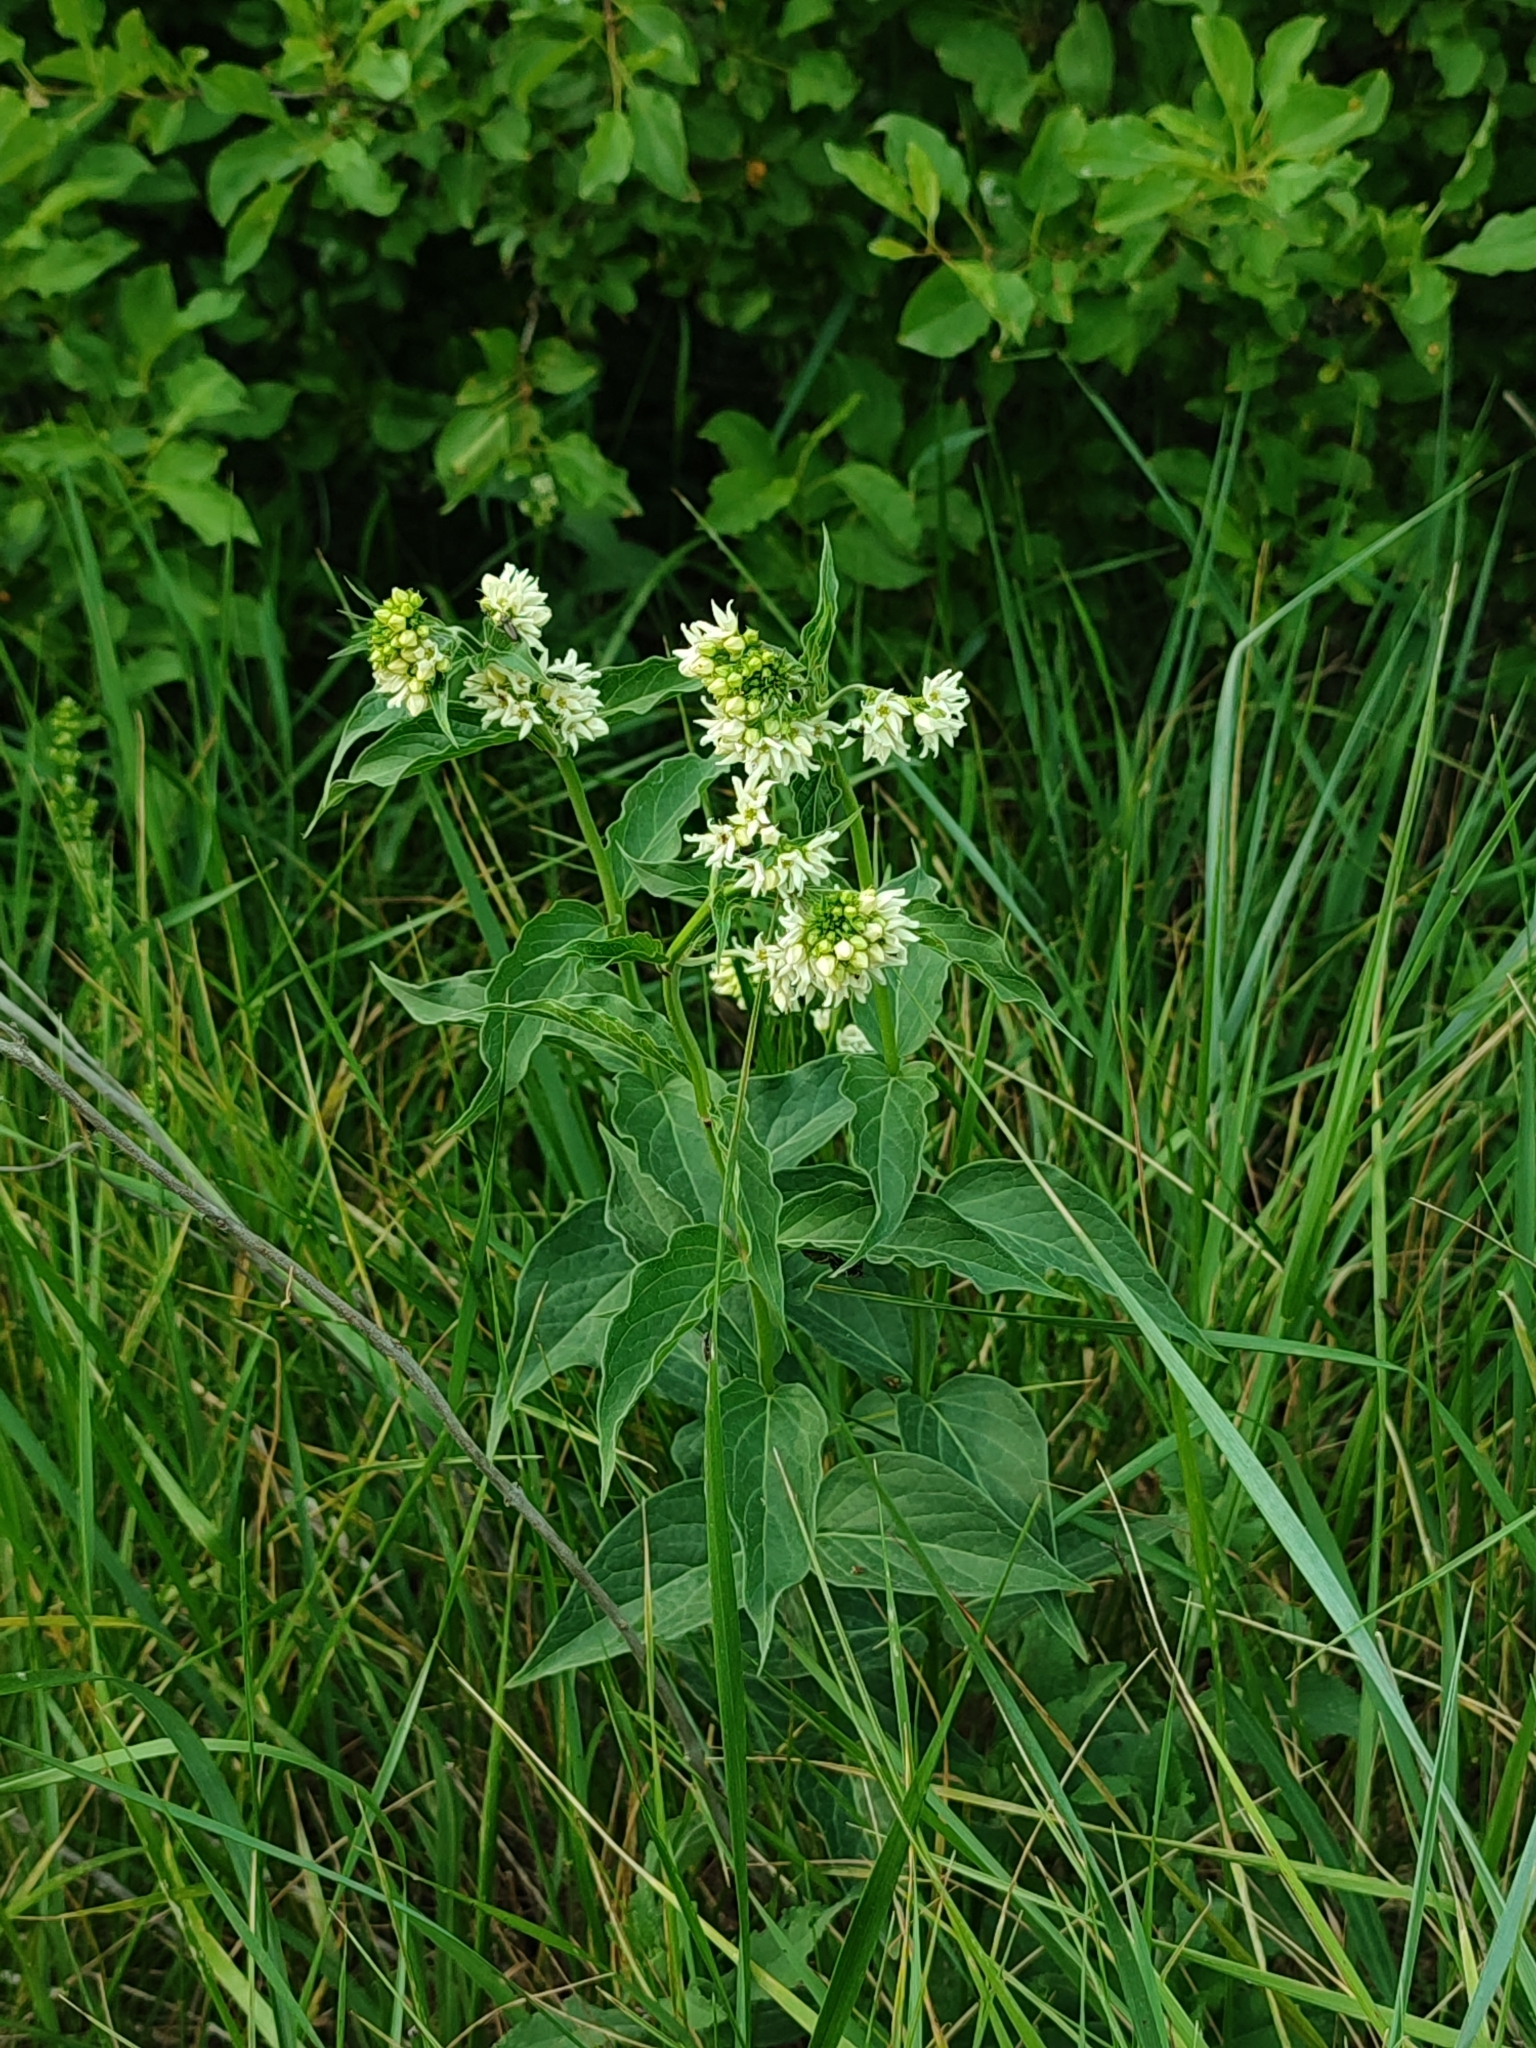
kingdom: Plantae
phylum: Tracheophyta
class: Magnoliopsida
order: Gentianales
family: Apocynaceae
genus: Vincetoxicum
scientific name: Vincetoxicum hirundinaria
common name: White swallowwort
